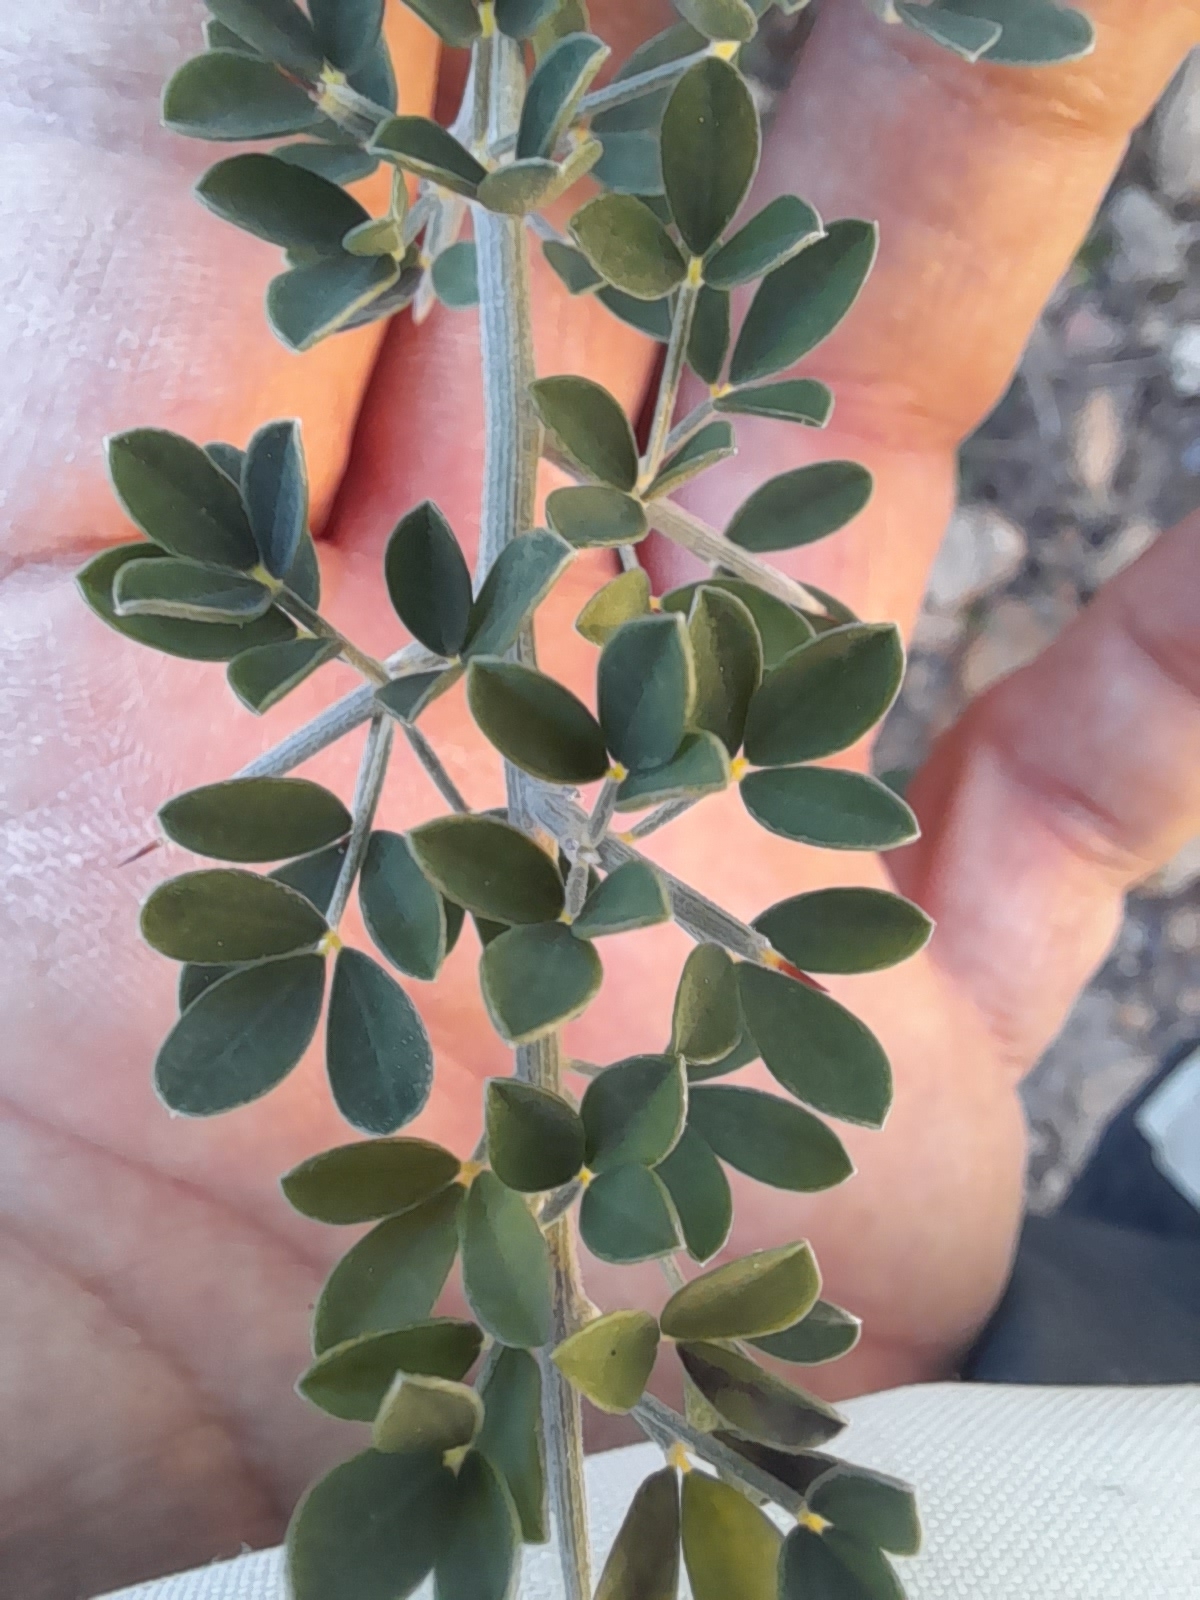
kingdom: Plantae
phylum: Tracheophyta
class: Magnoliopsida
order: Fabales
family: Fabaceae
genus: Calicotome
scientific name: Calicotome villosa
